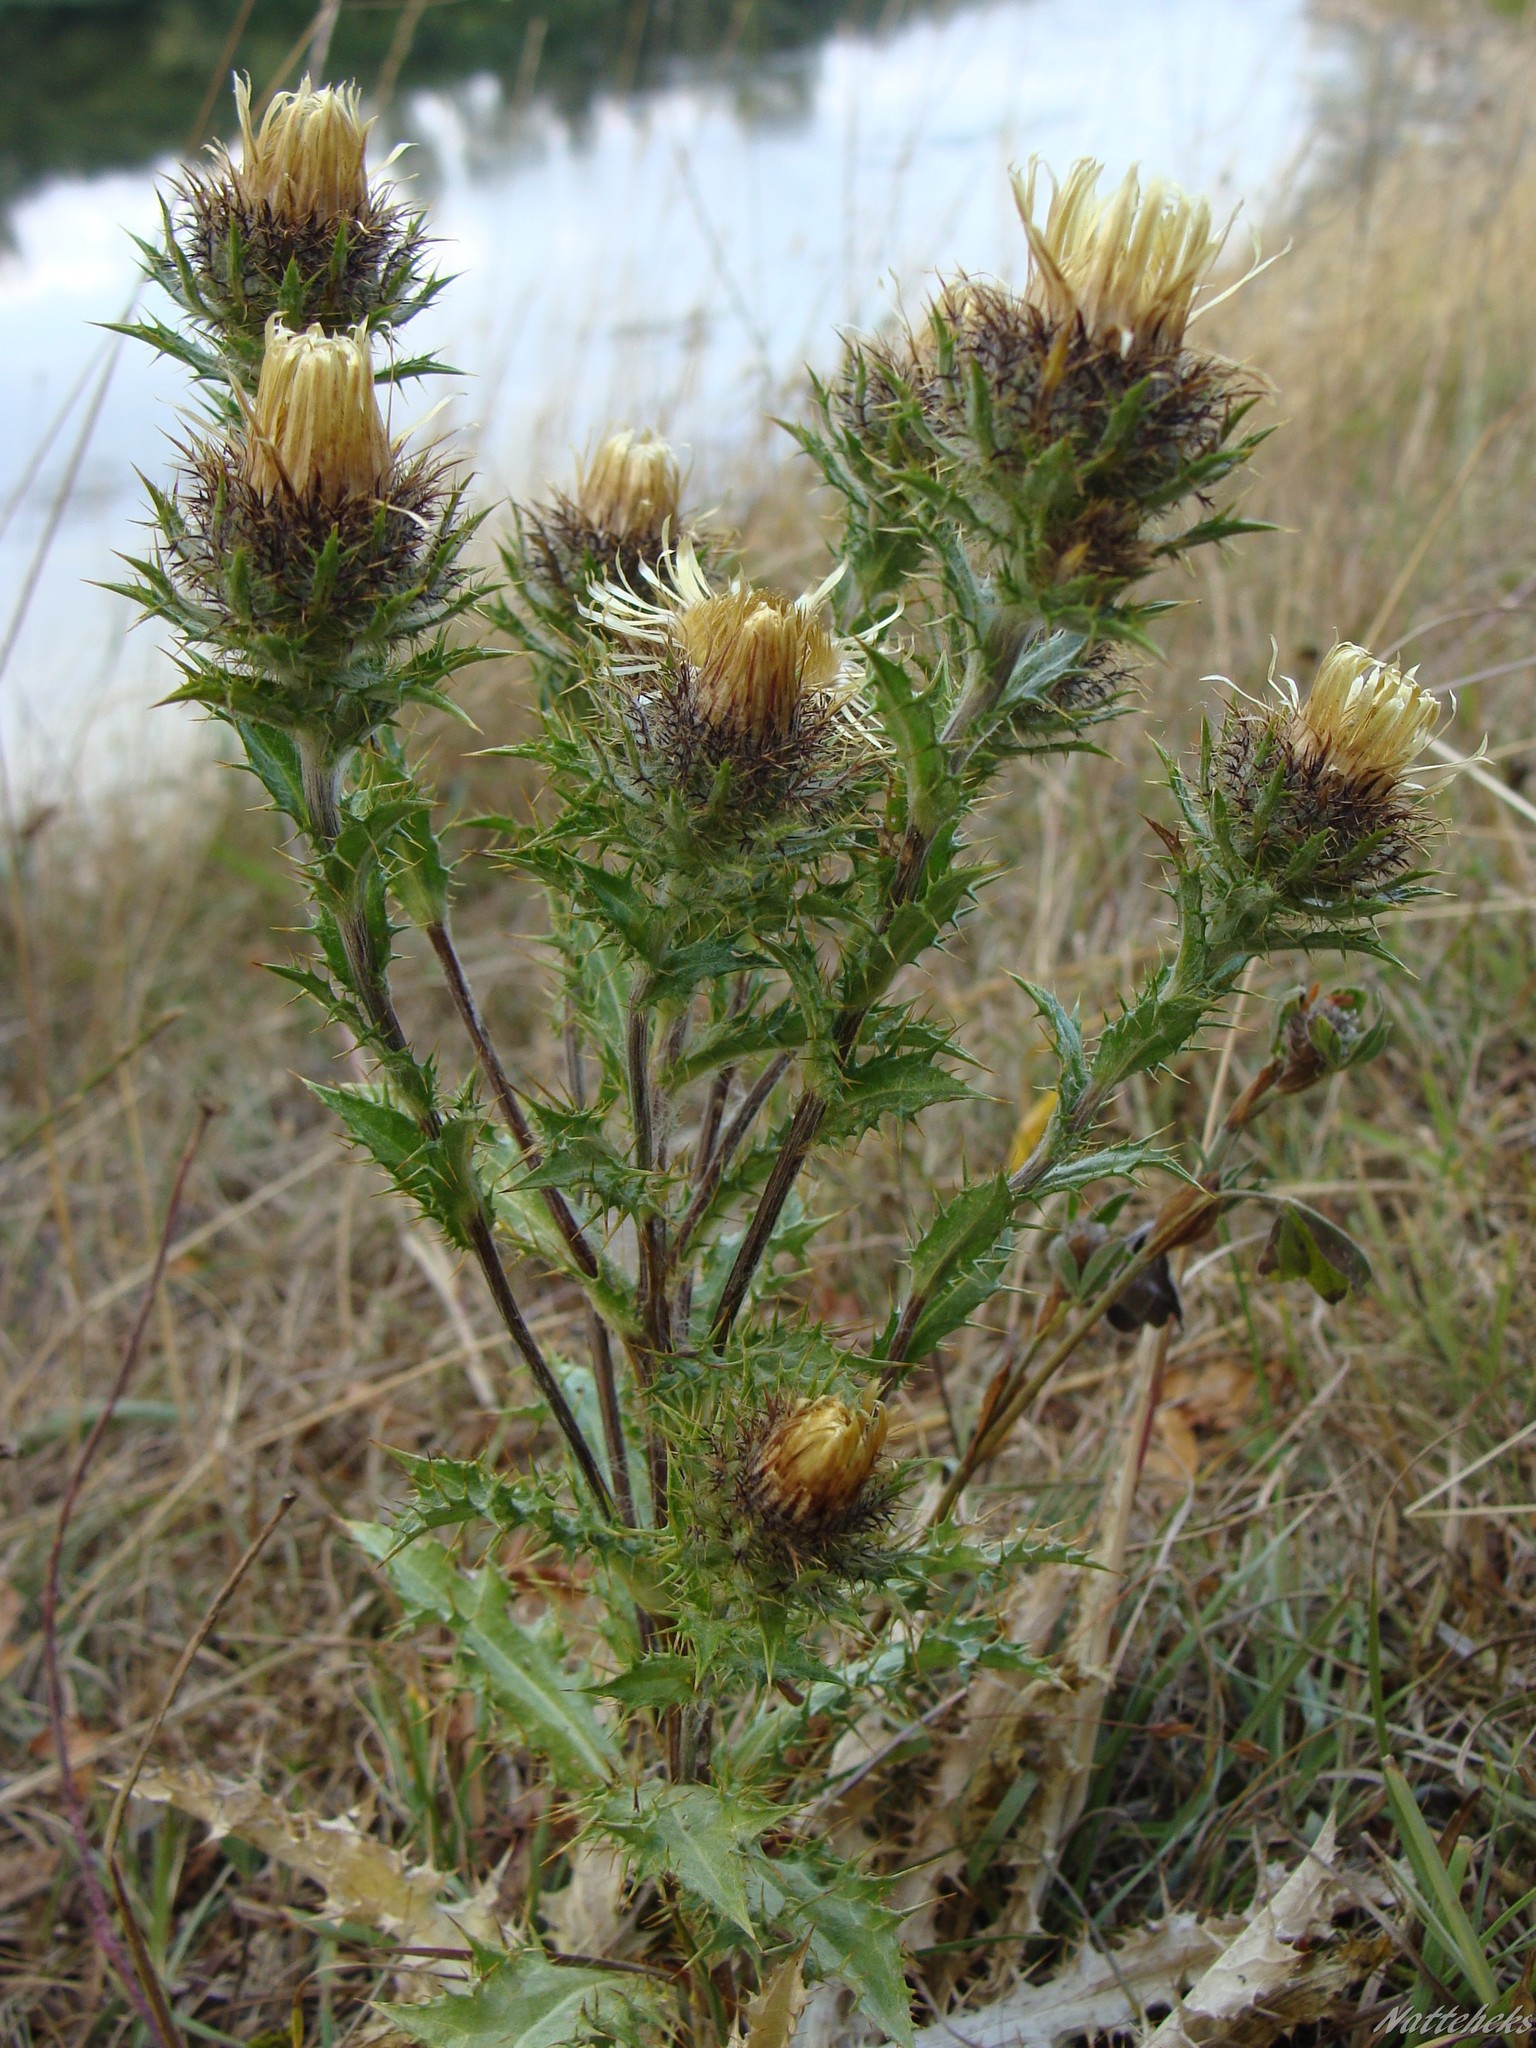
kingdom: Plantae
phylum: Tracheophyta
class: Magnoliopsida
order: Asterales
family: Asteraceae
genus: Carlina
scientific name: Carlina vulgaris
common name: Carline thistle
